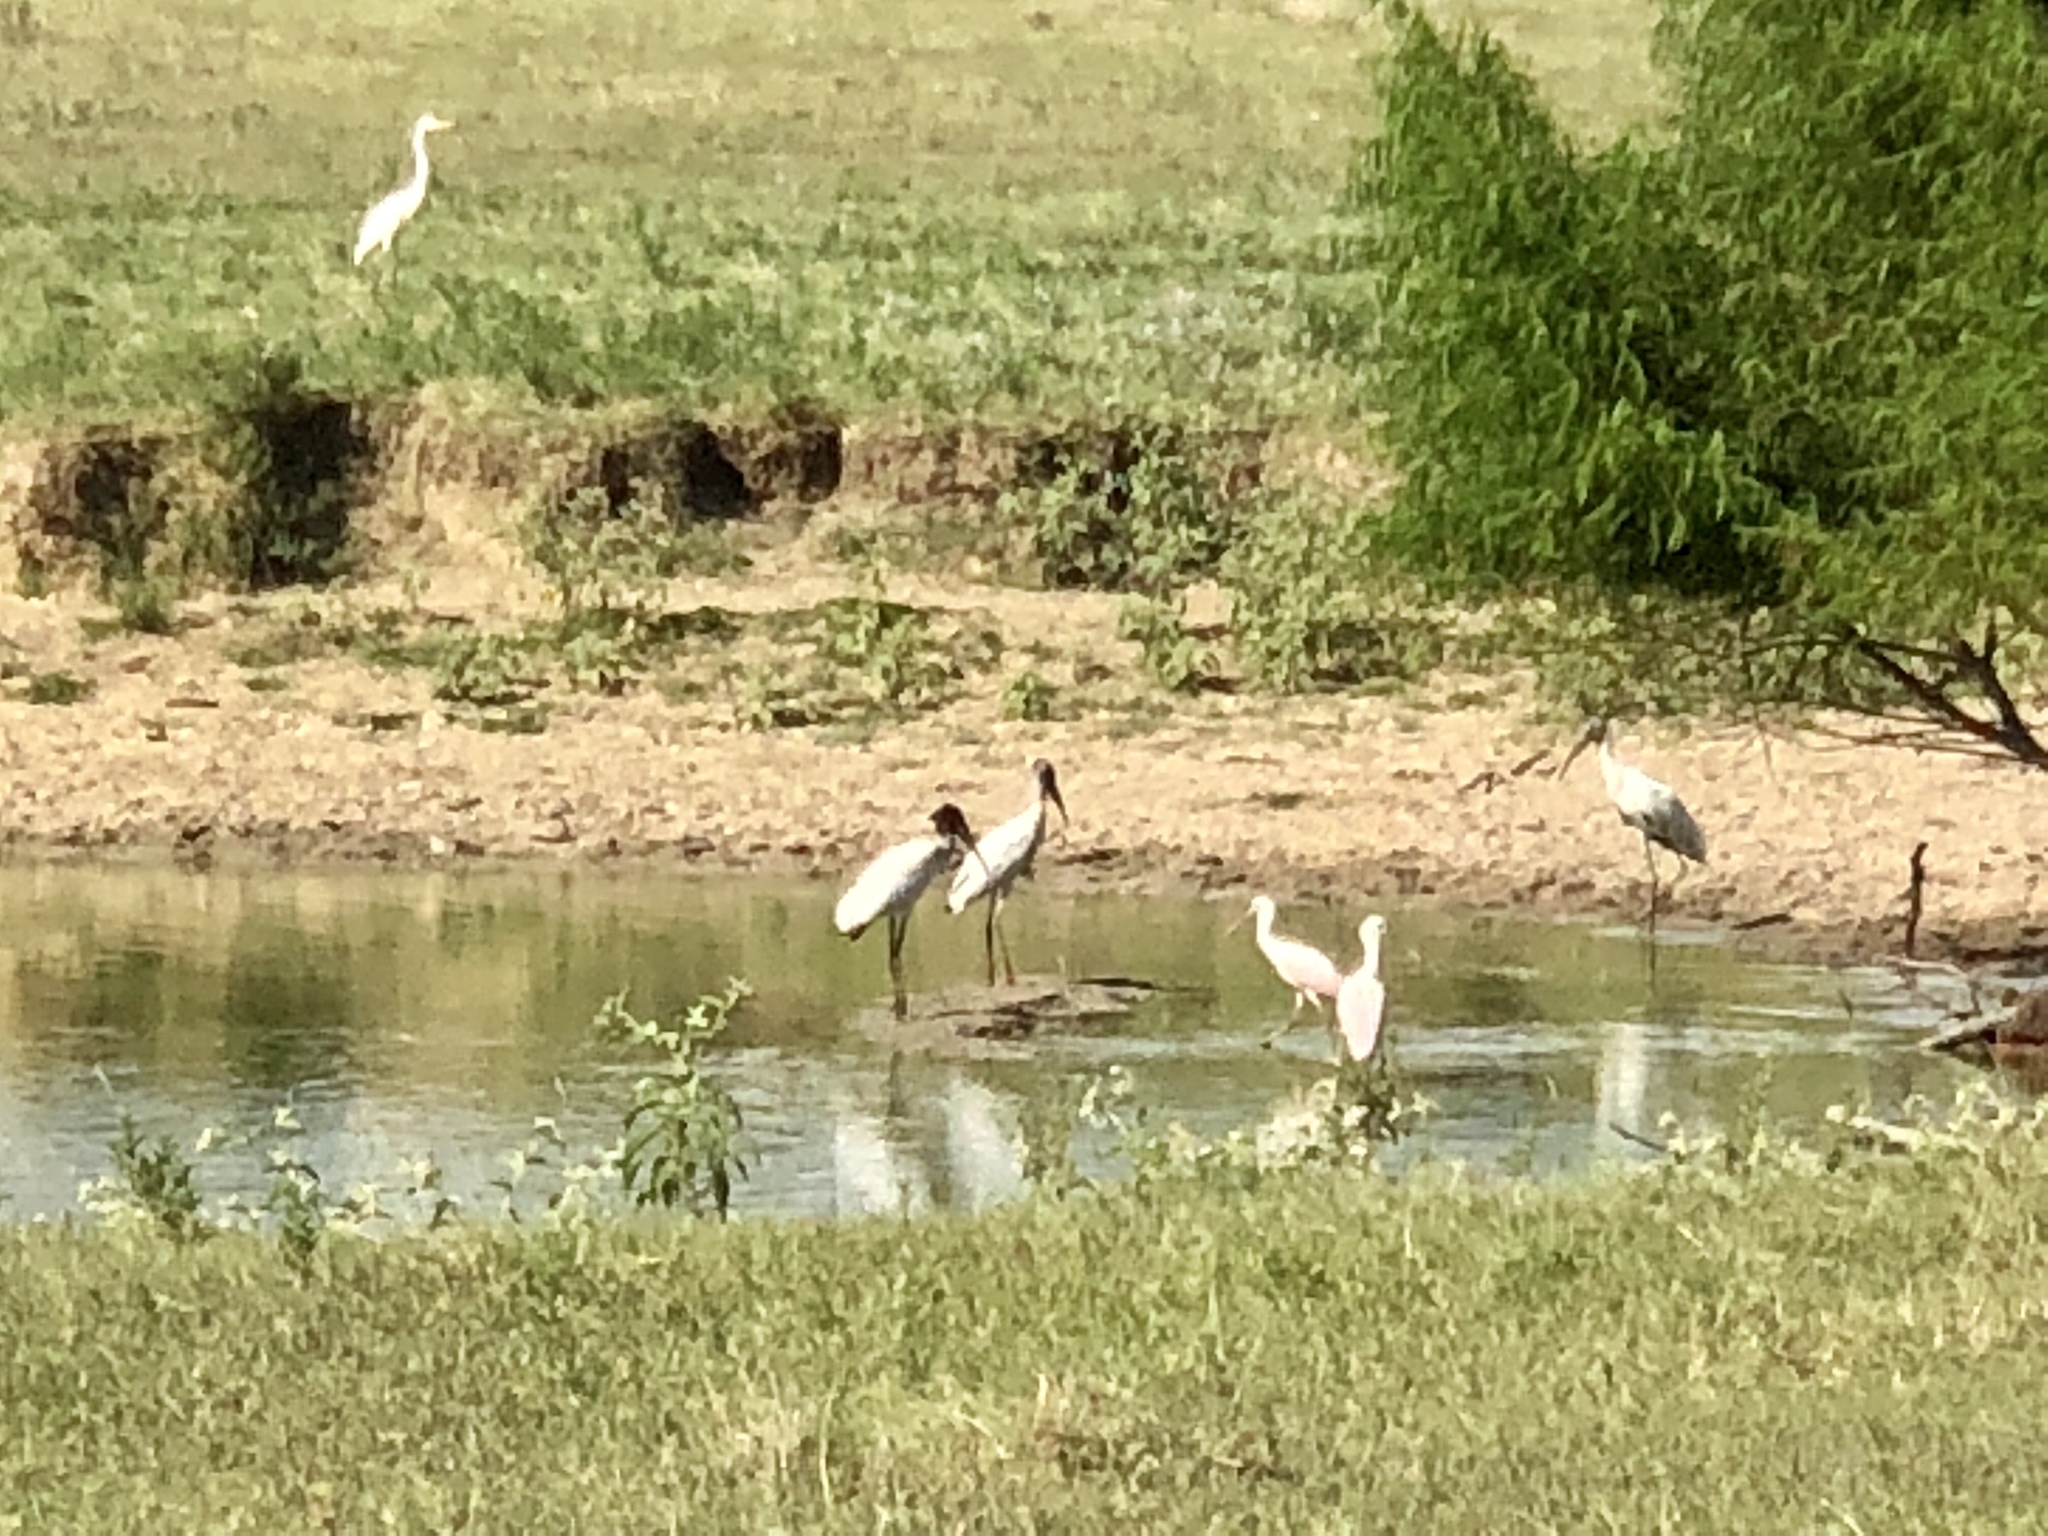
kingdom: Animalia
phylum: Chordata
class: Aves
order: Pelecaniformes
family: Threskiornithidae
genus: Platalea
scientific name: Platalea ajaja
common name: Roseate spoonbill
